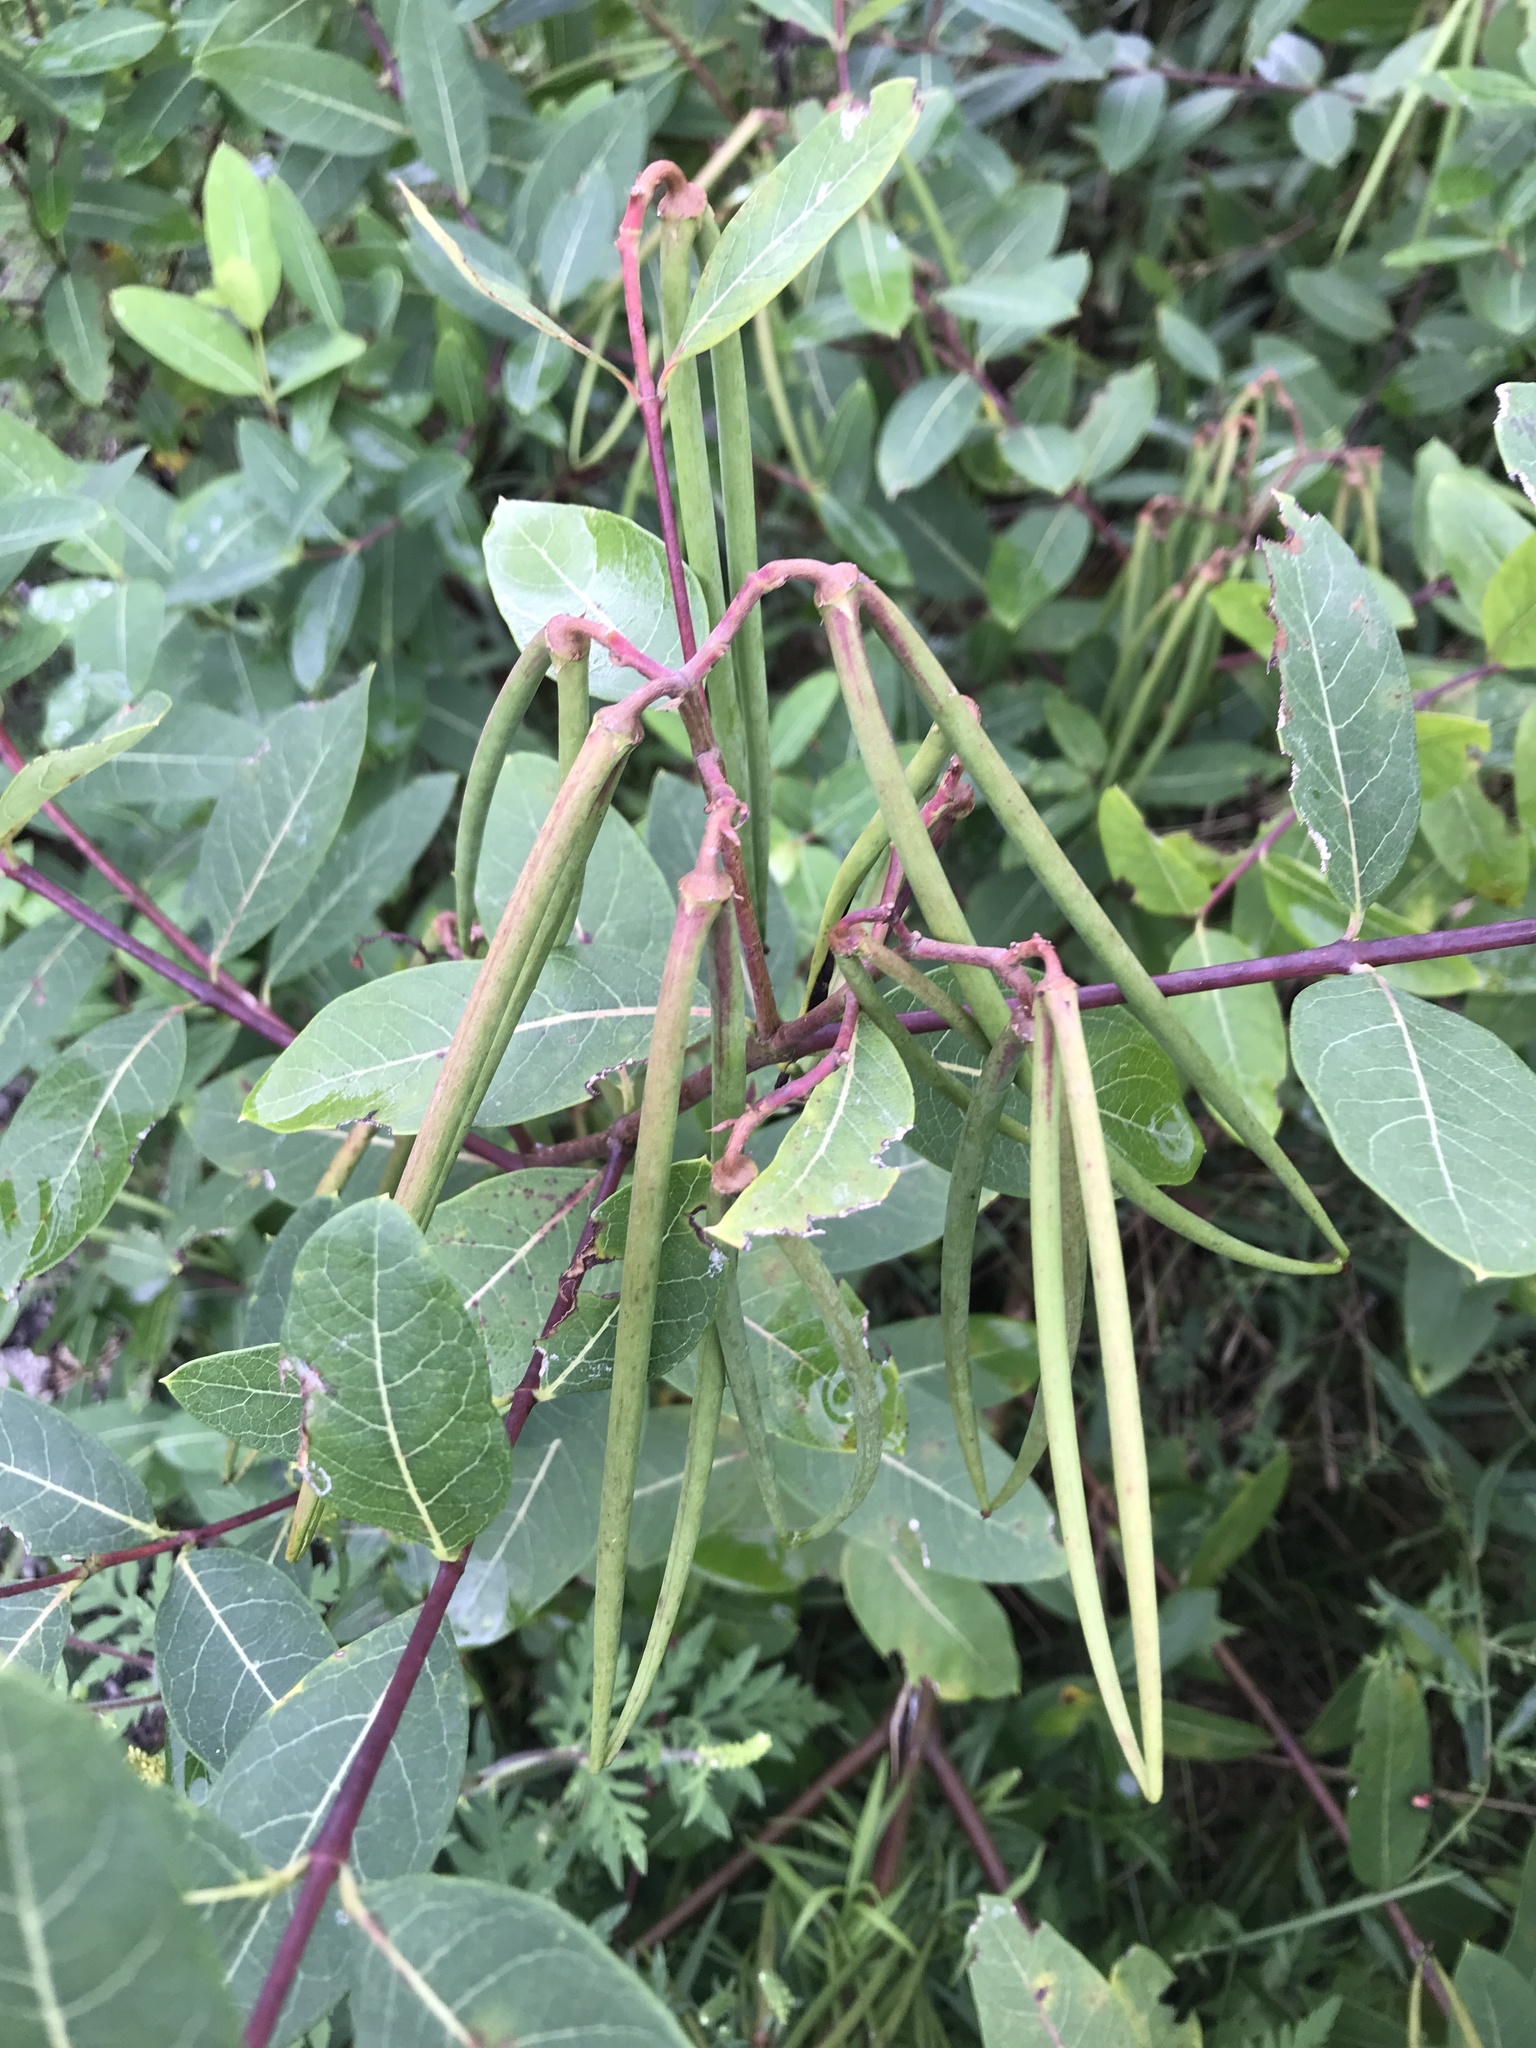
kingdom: Plantae
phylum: Tracheophyta
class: Magnoliopsida
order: Gentianales
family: Apocynaceae
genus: Apocynum
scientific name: Apocynum cannabinum
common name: Hemp dogbane
